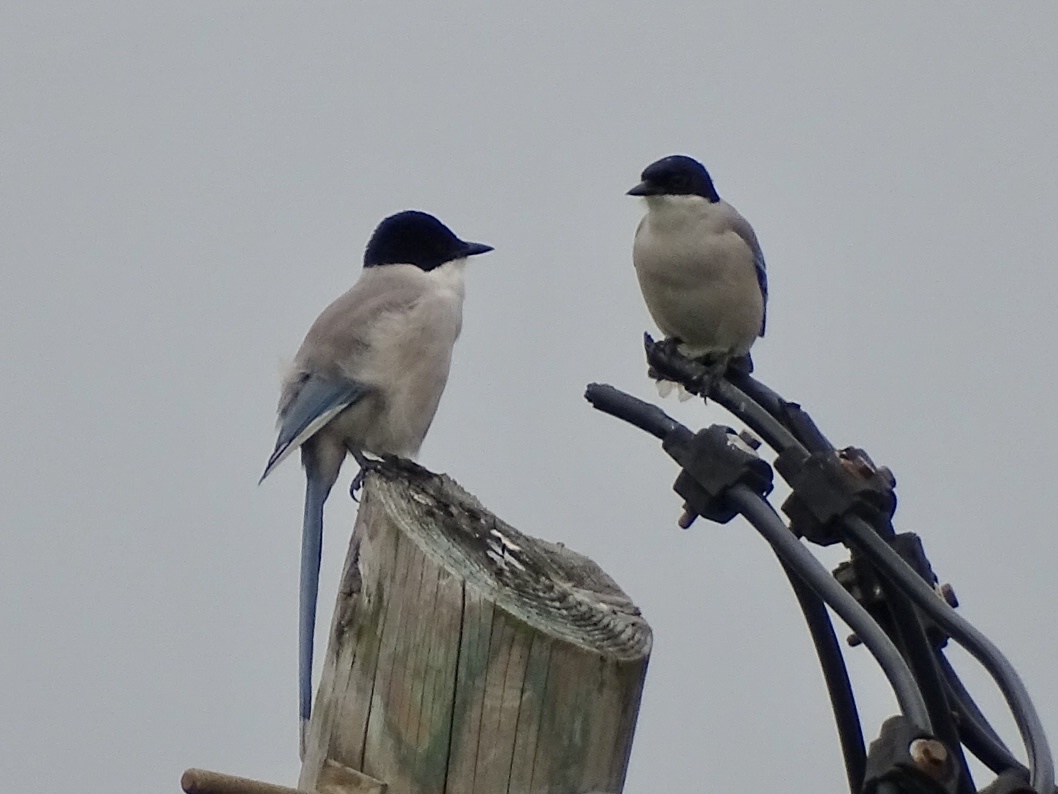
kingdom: Animalia
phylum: Chordata
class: Aves
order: Passeriformes
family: Corvidae
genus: Cyanopica
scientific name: Cyanopica cyanus
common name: Azure-winged magpie
